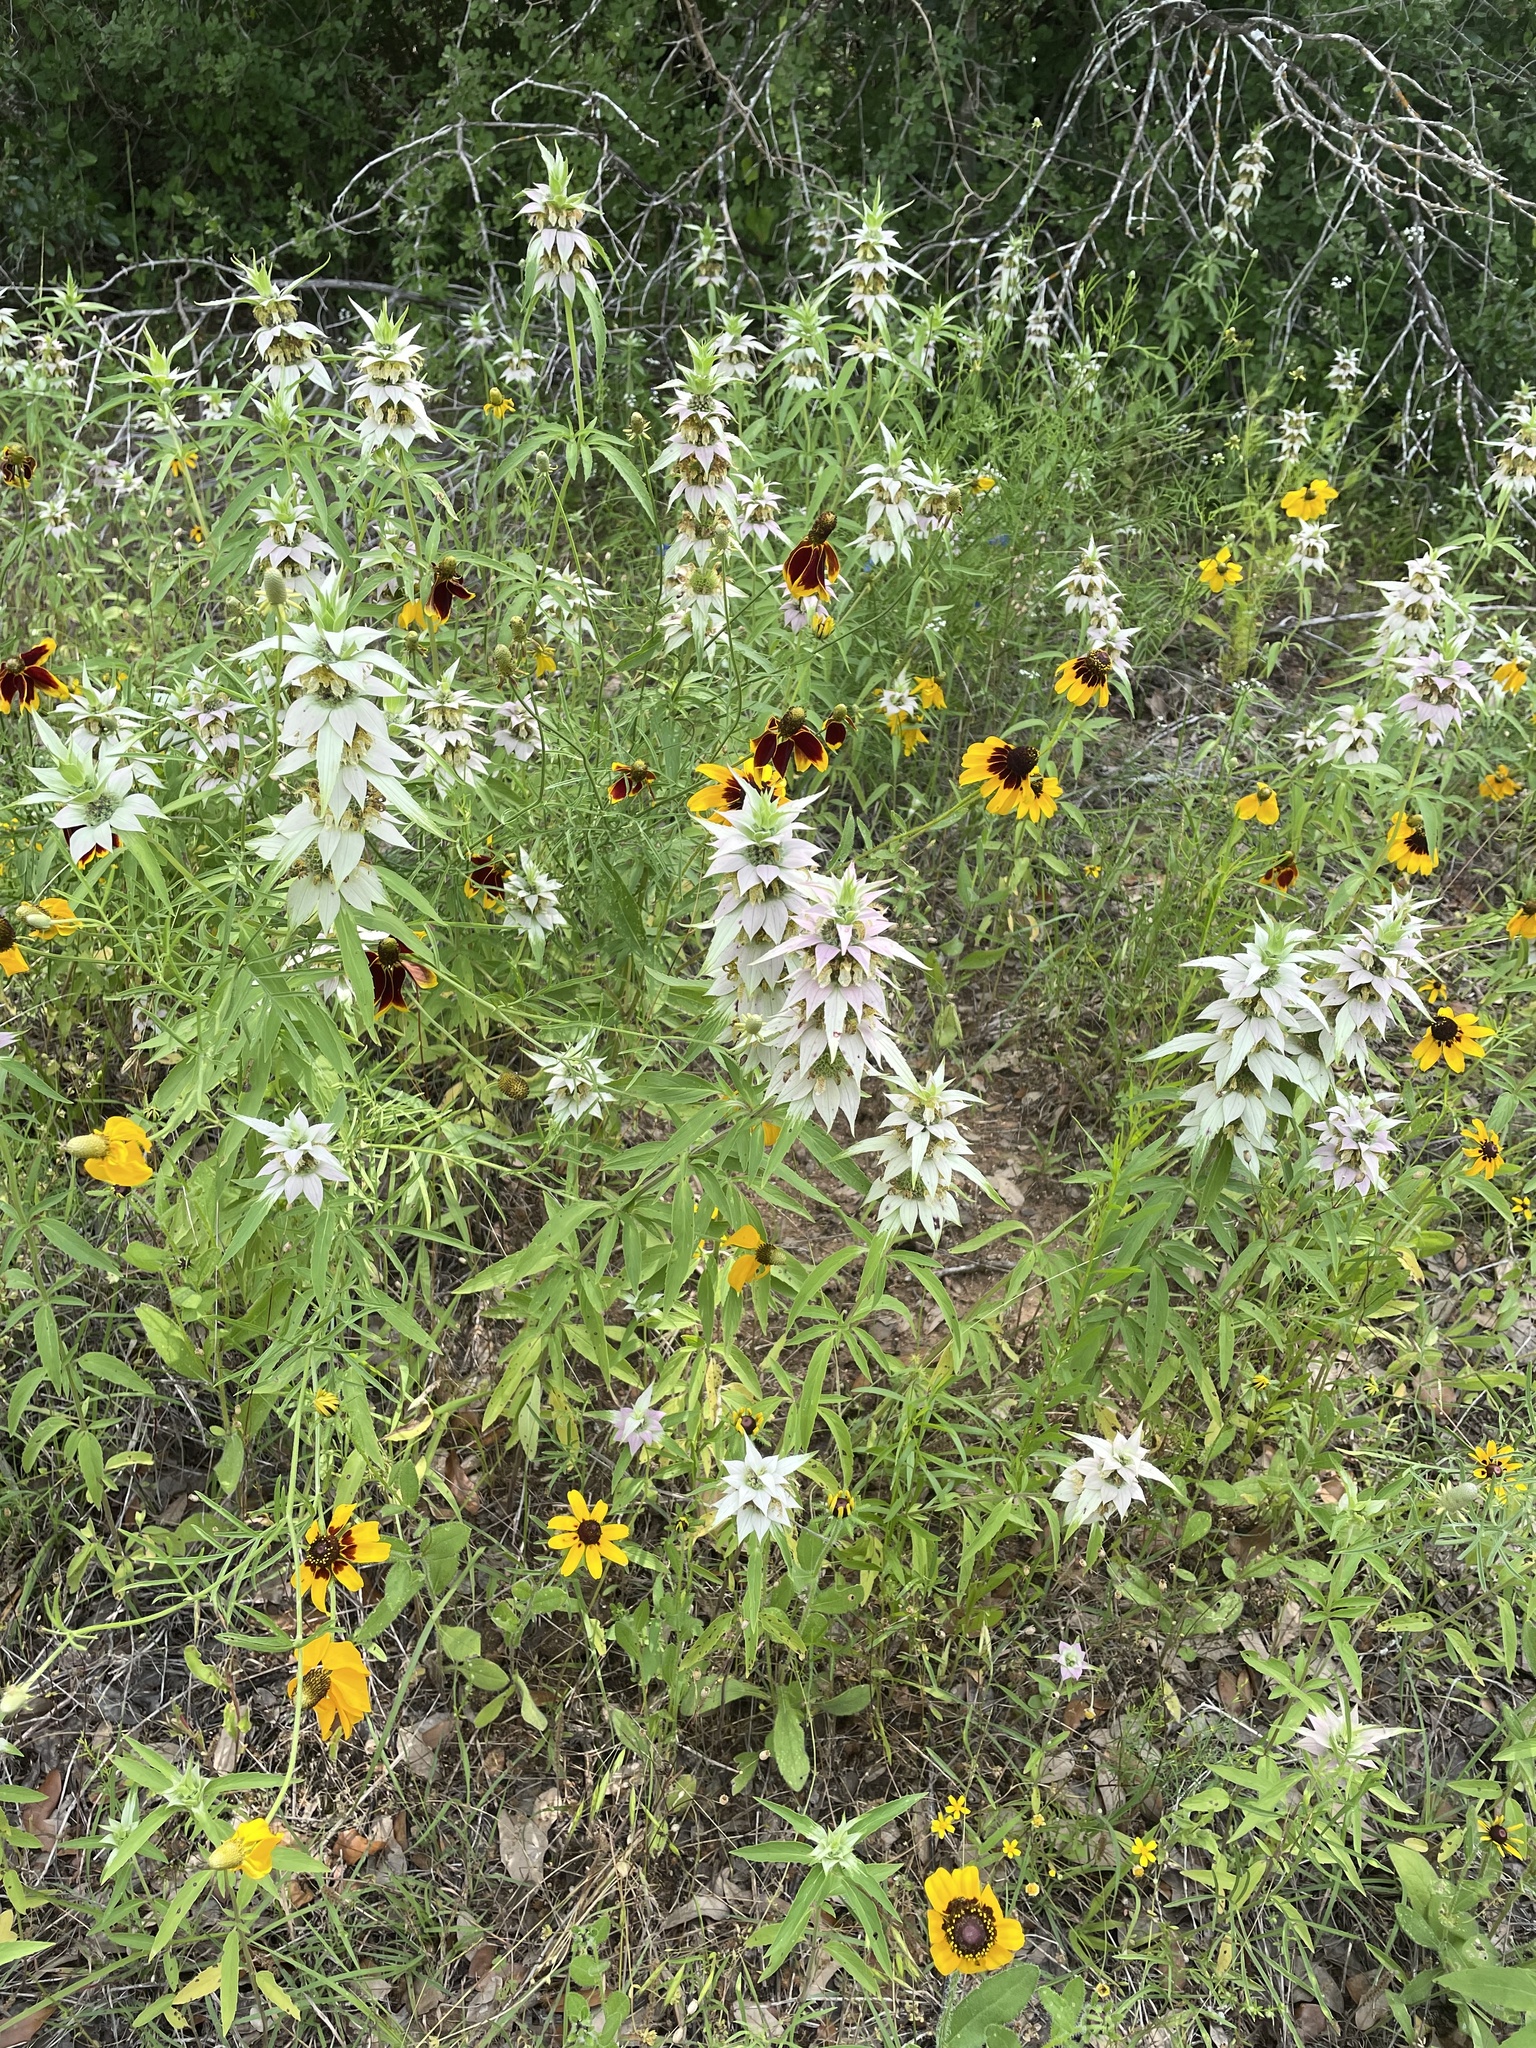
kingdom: Plantae
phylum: Tracheophyta
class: Magnoliopsida
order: Lamiales
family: Lamiaceae
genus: Monarda
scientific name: Monarda punctata
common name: Dotted monarda
